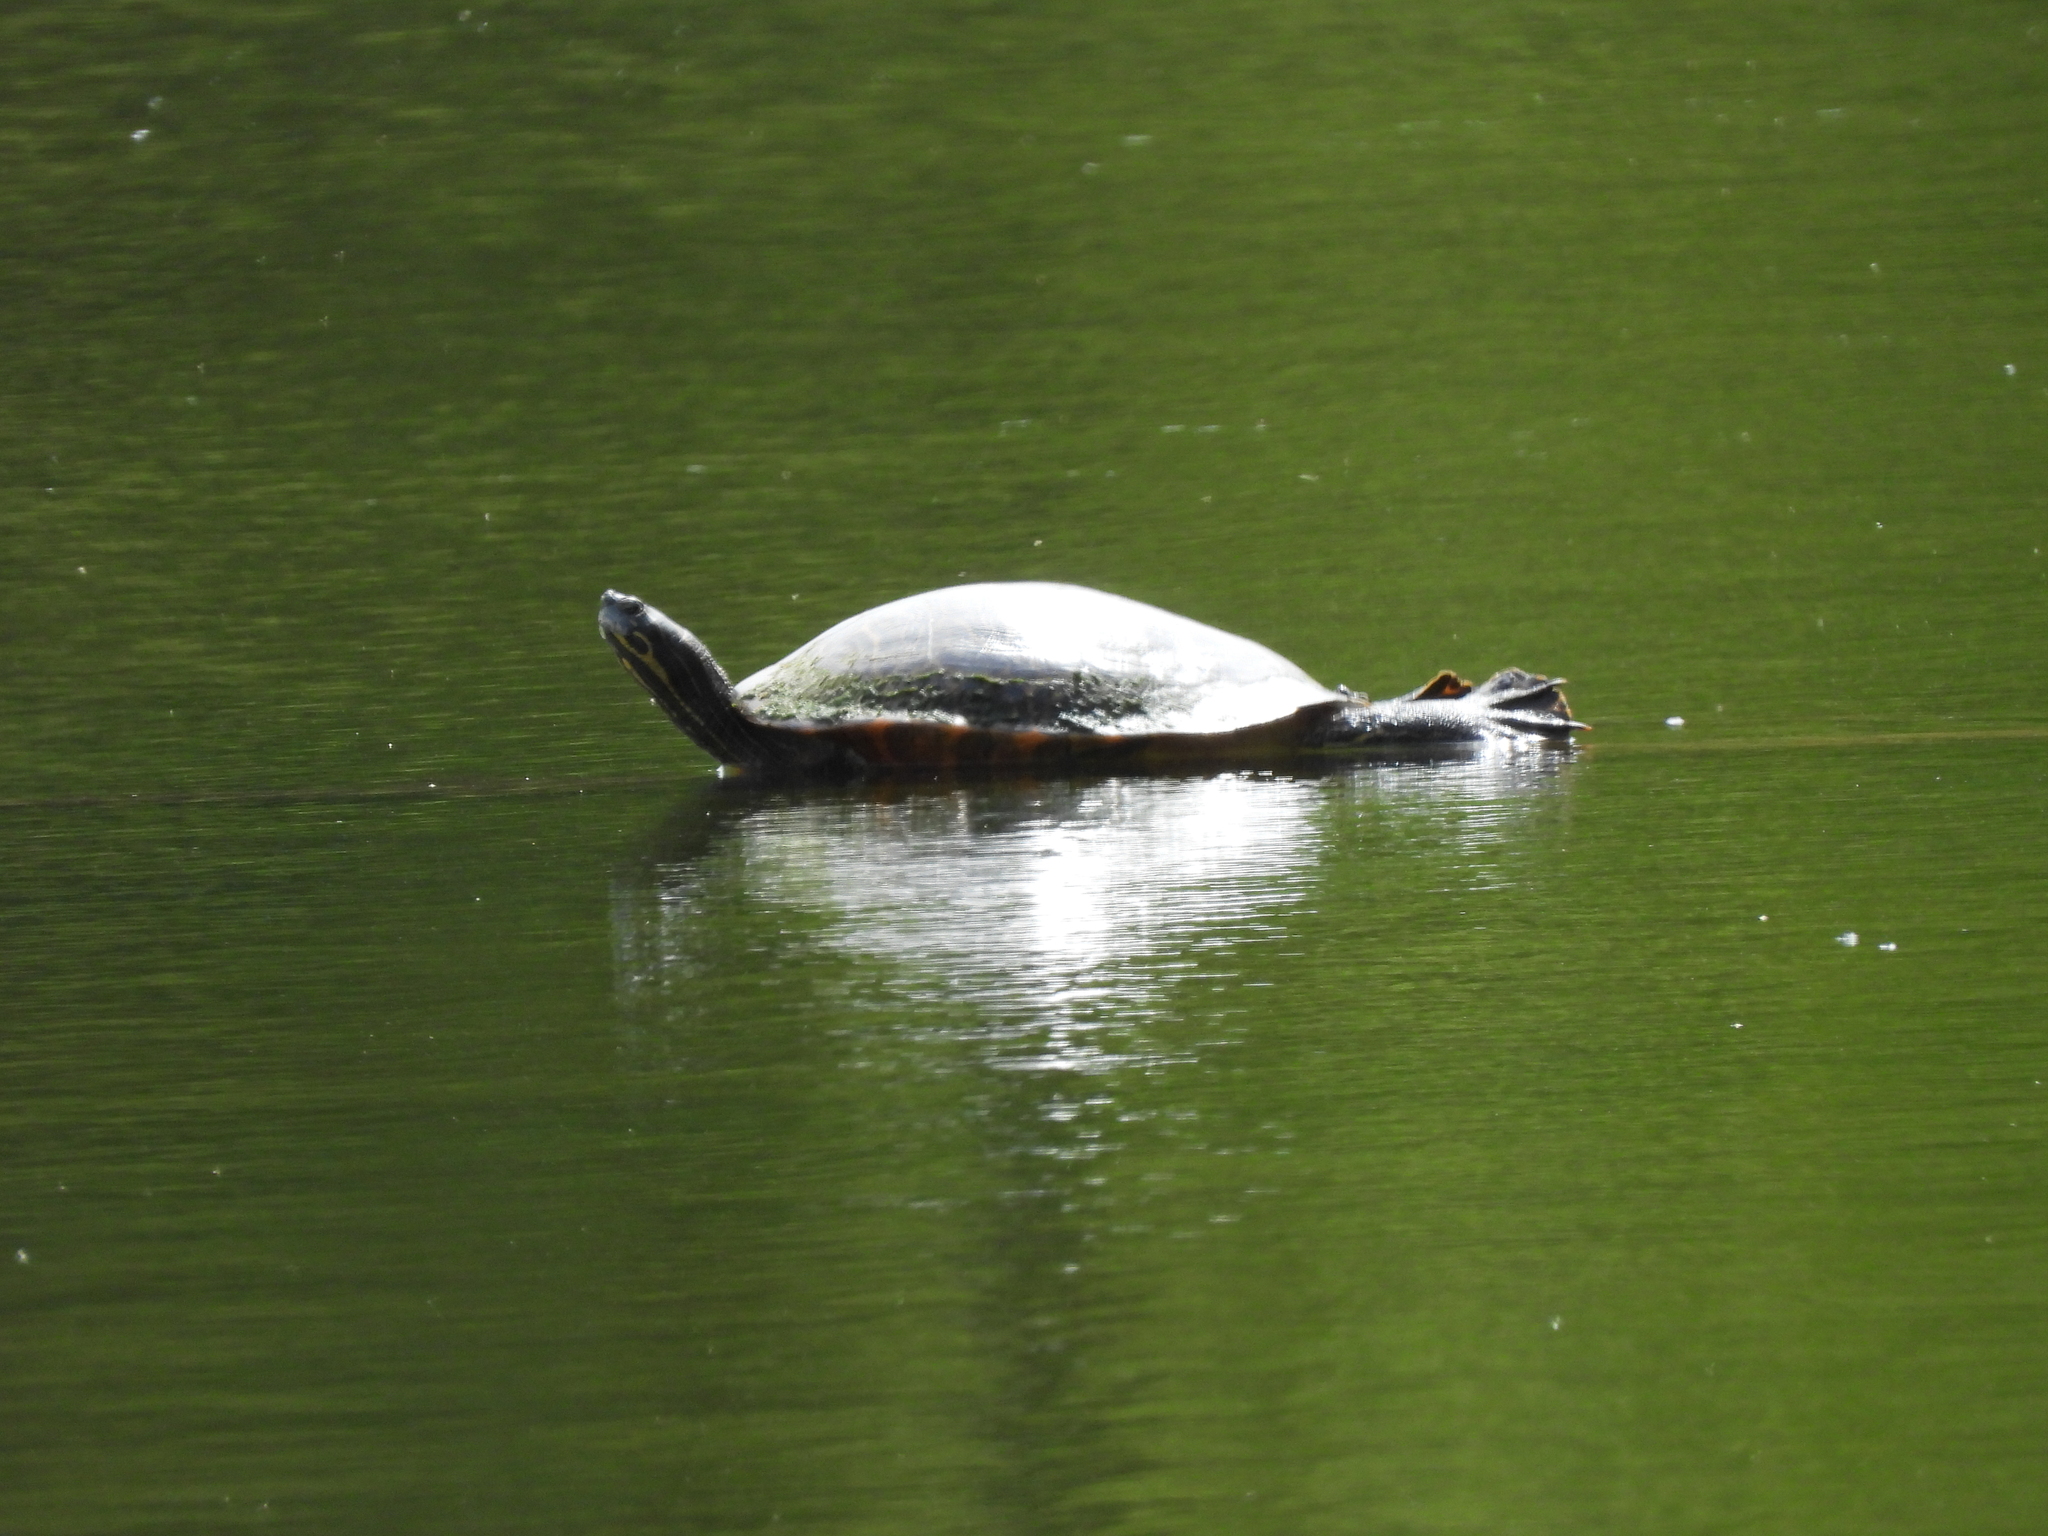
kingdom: Animalia
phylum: Chordata
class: Testudines
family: Emydidae
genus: Pseudemys
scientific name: Pseudemys concinna
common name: Eastern river cooter
